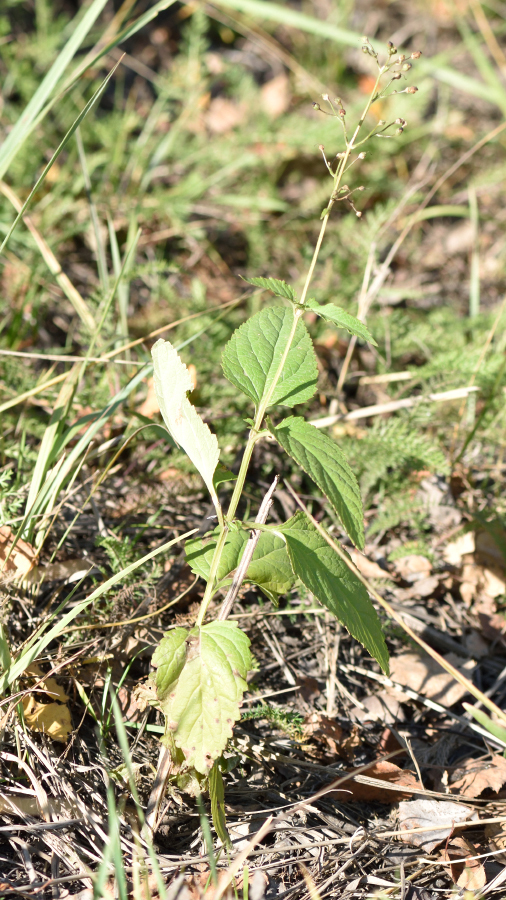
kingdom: Plantae
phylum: Tracheophyta
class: Magnoliopsida
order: Lamiales
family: Scrophulariaceae
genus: Scrophularia
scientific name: Scrophularia nodosa
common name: Common figwort
